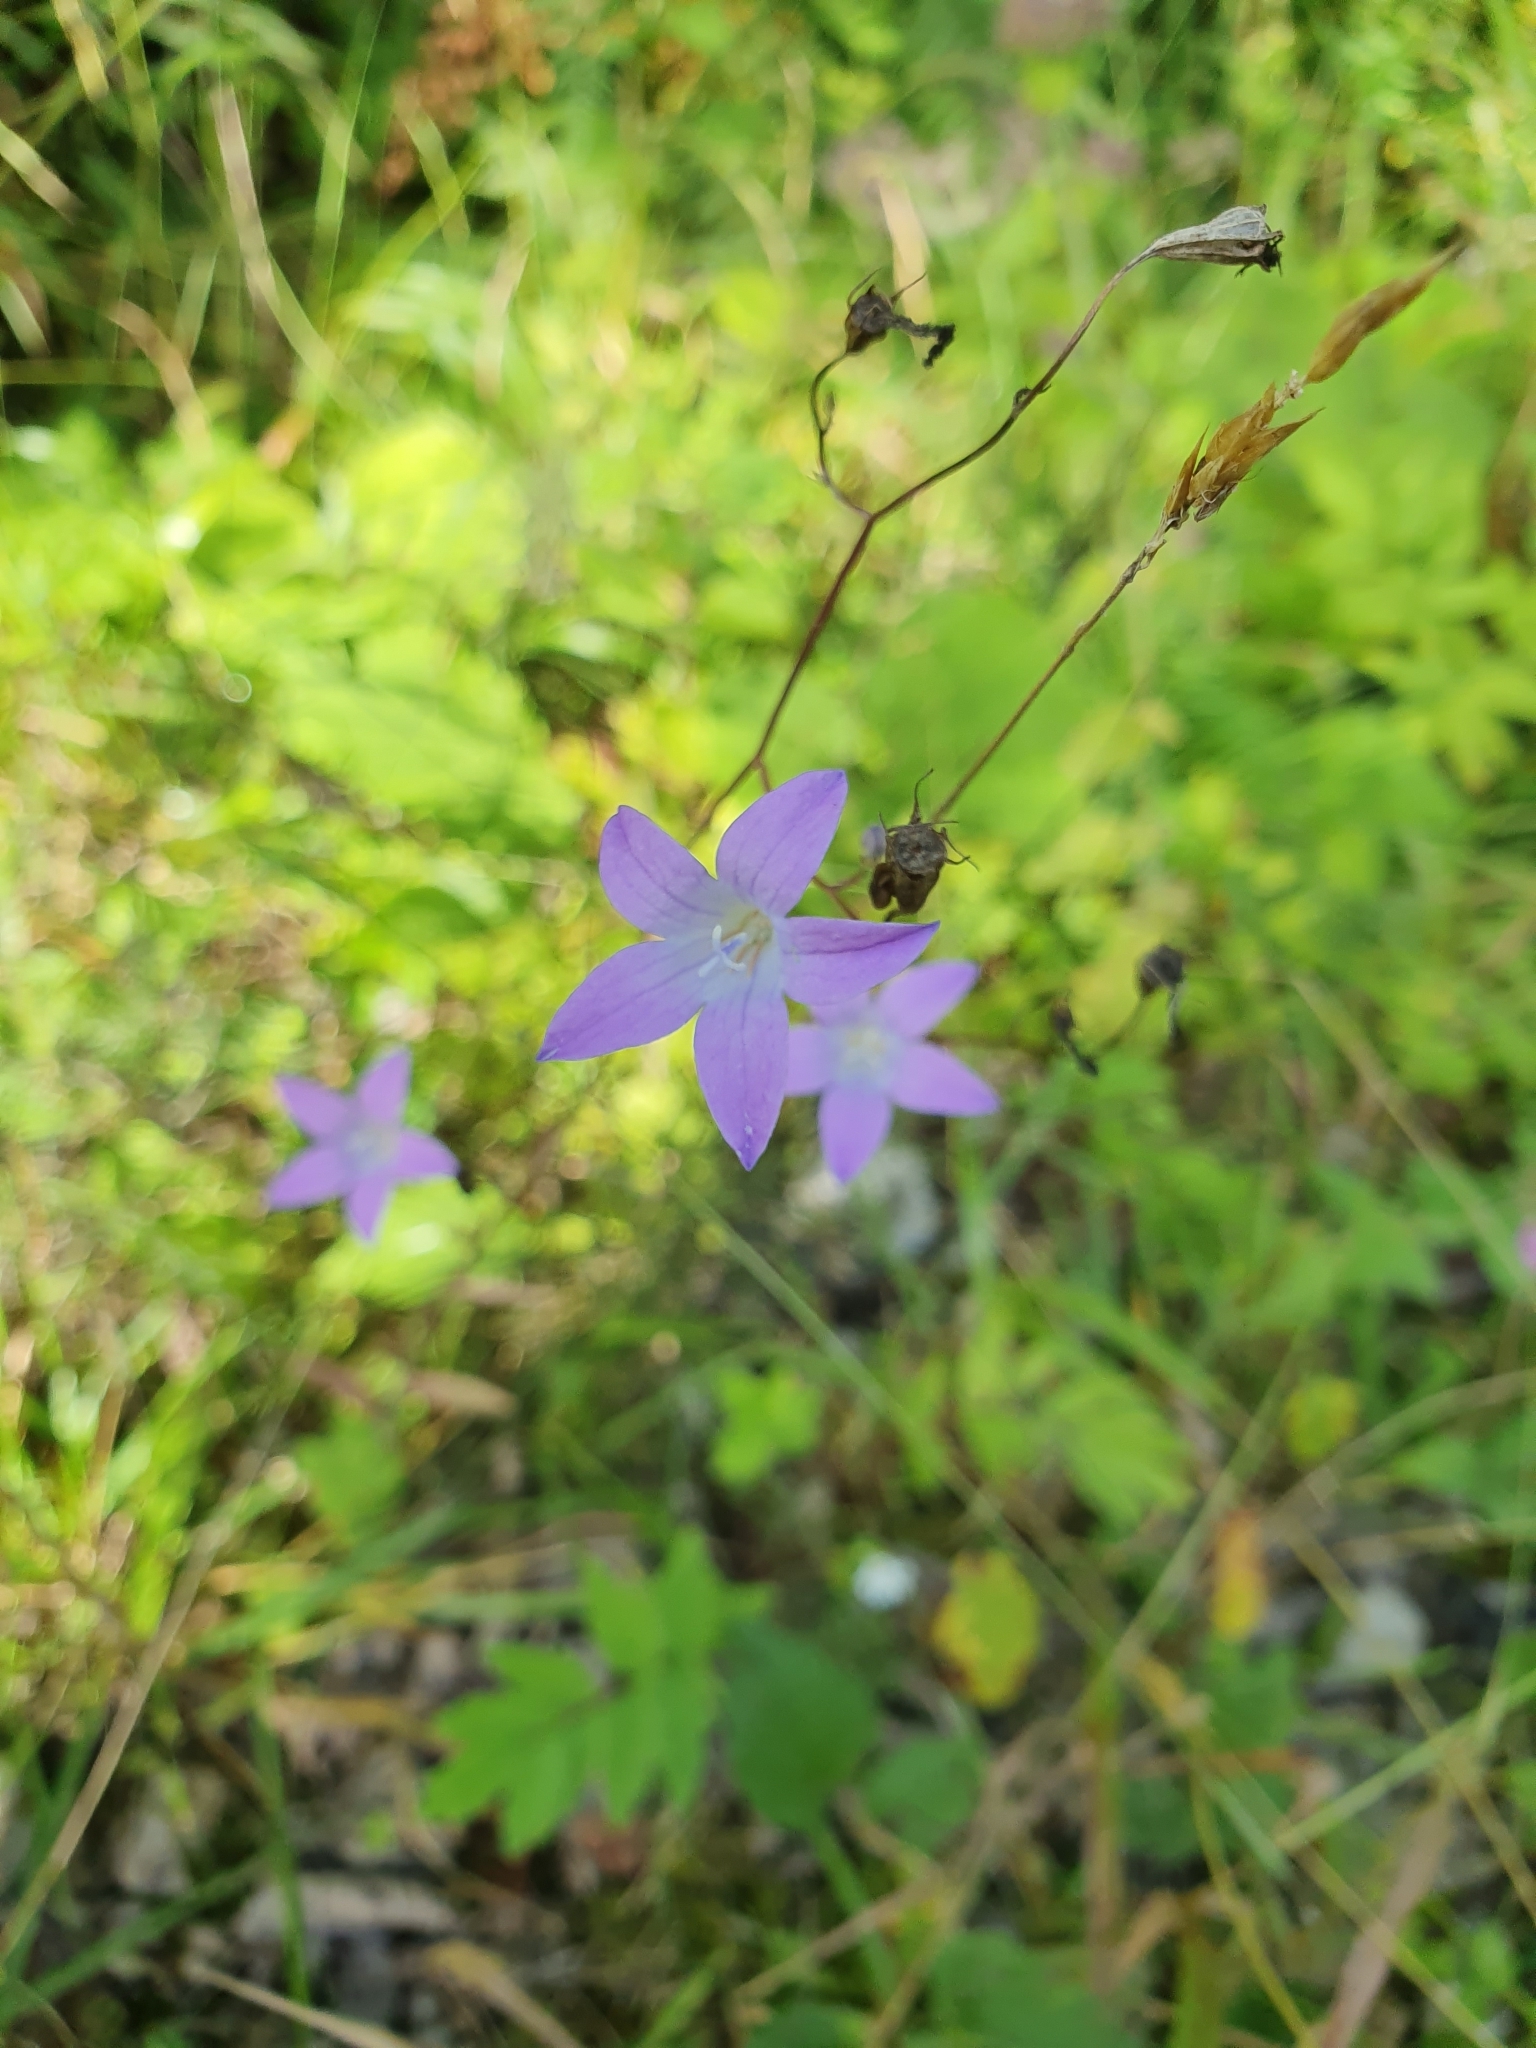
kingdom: Plantae
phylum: Tracheophyta
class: Magnoliopsida
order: Asterales
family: Campanulaceae
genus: Campanula
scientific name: Campanula patula
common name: Spreading bellflower
